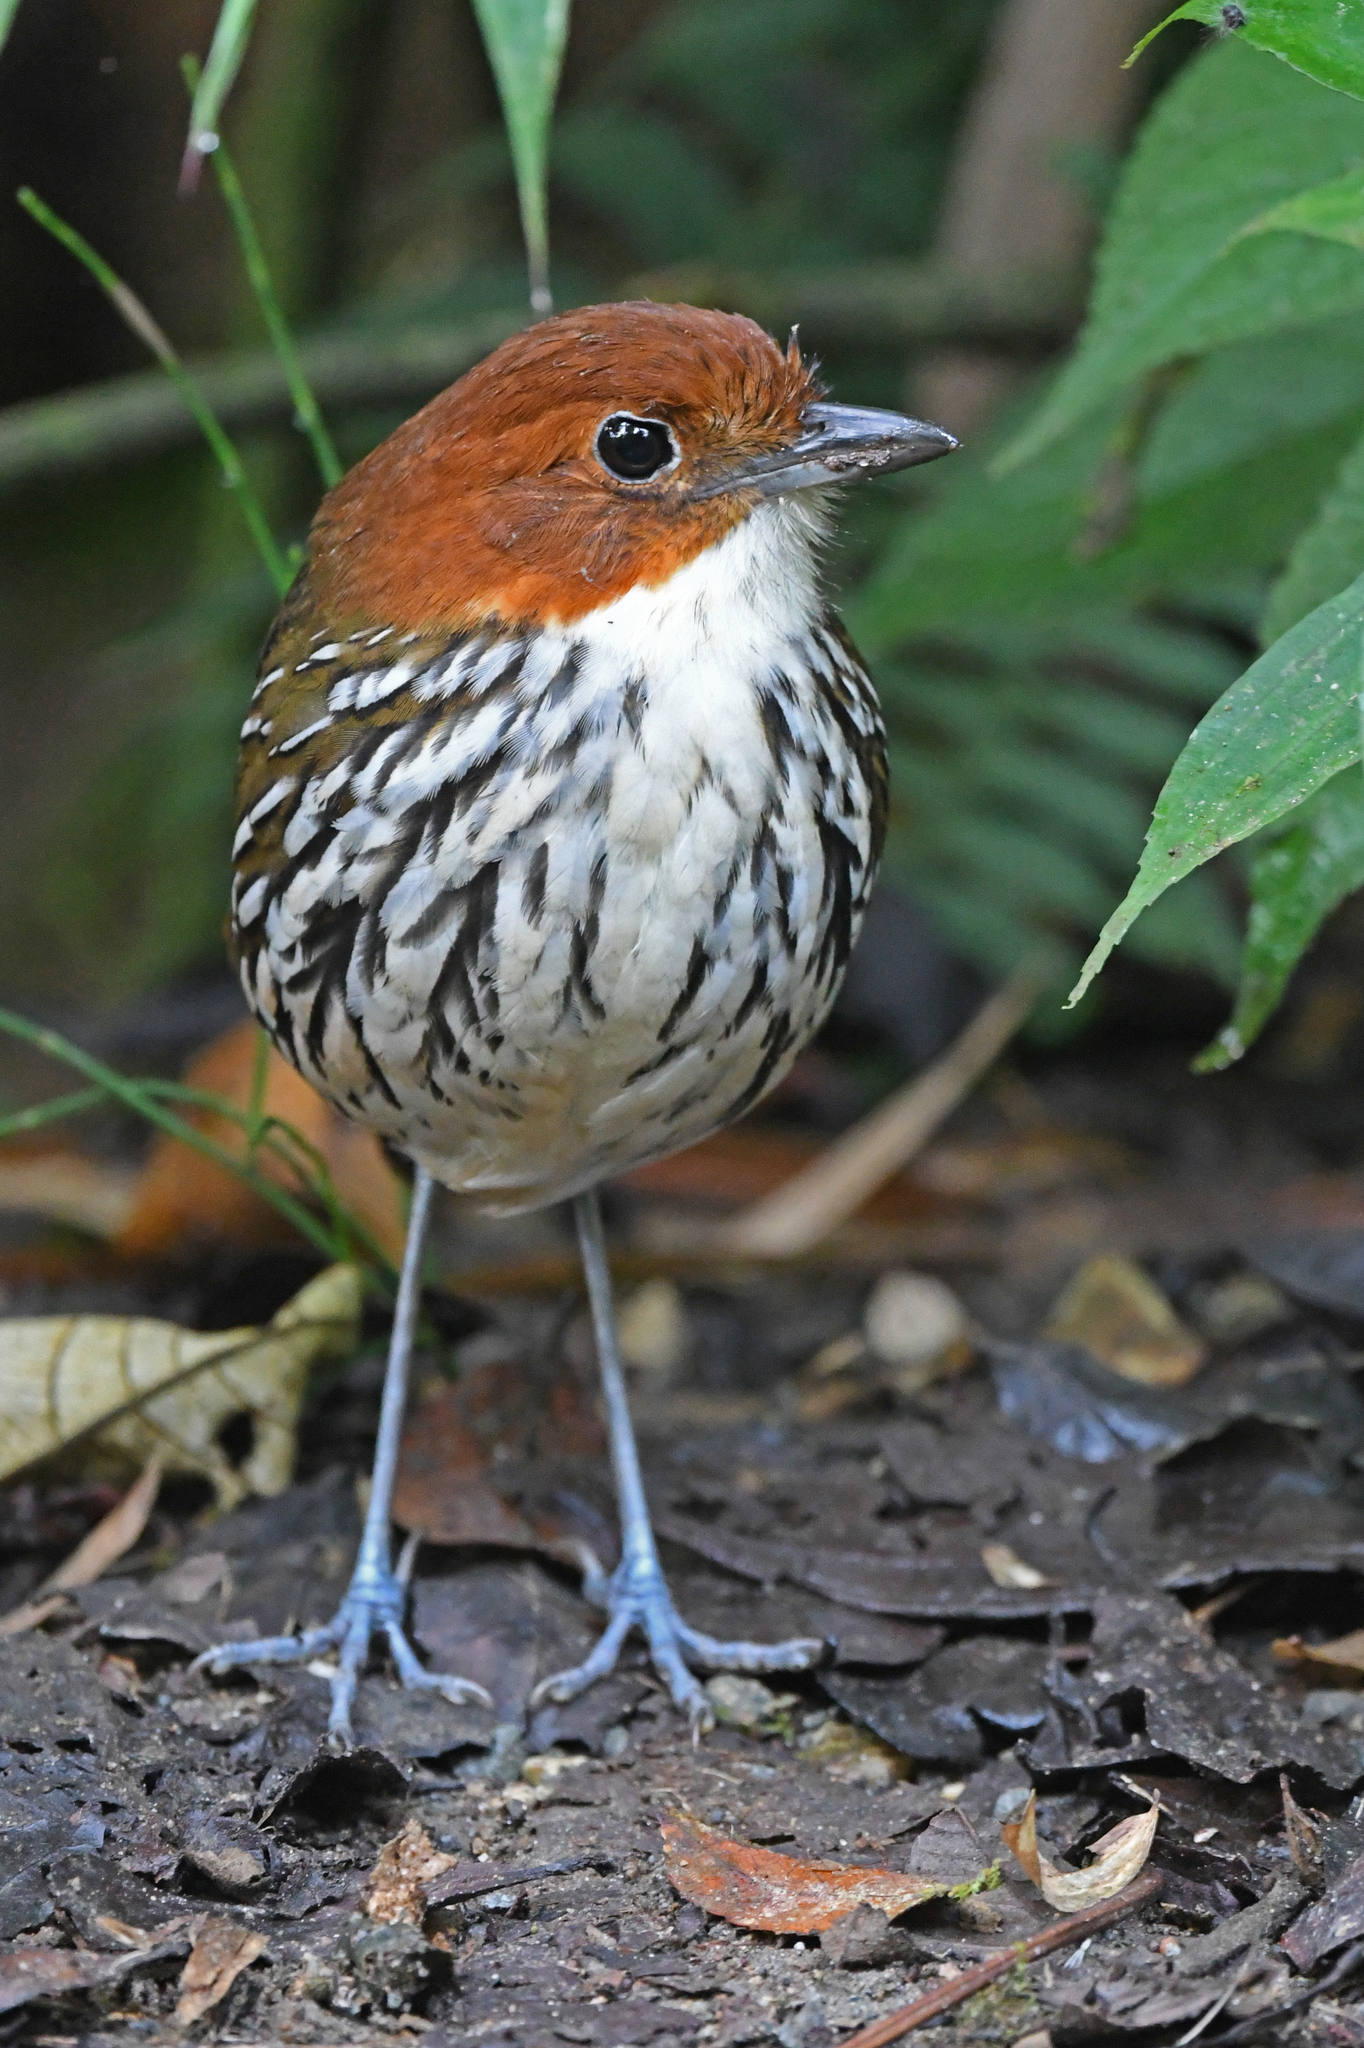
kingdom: Animalia
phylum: Chordata
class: Aves
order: Passeriformes
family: Grallariidae
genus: Grallaria
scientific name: Grallaria ruficapilla
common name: Chestnut-crowned antpitta
